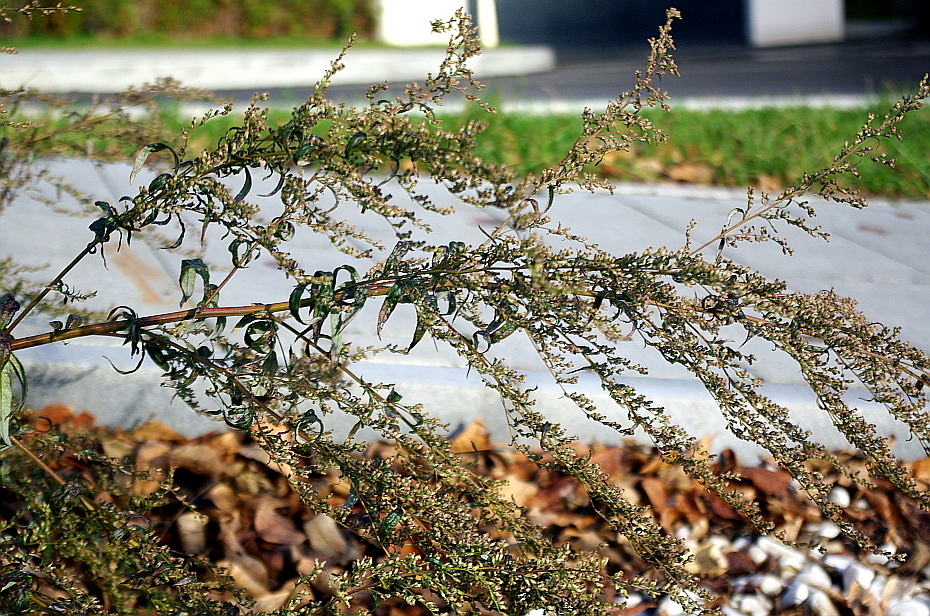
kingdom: Plantae
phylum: Tracheophyta
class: Magnoliopsida
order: Asterales
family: Asteraceae
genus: Artemisia
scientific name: Artemisia vulgaris
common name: Mugwort
